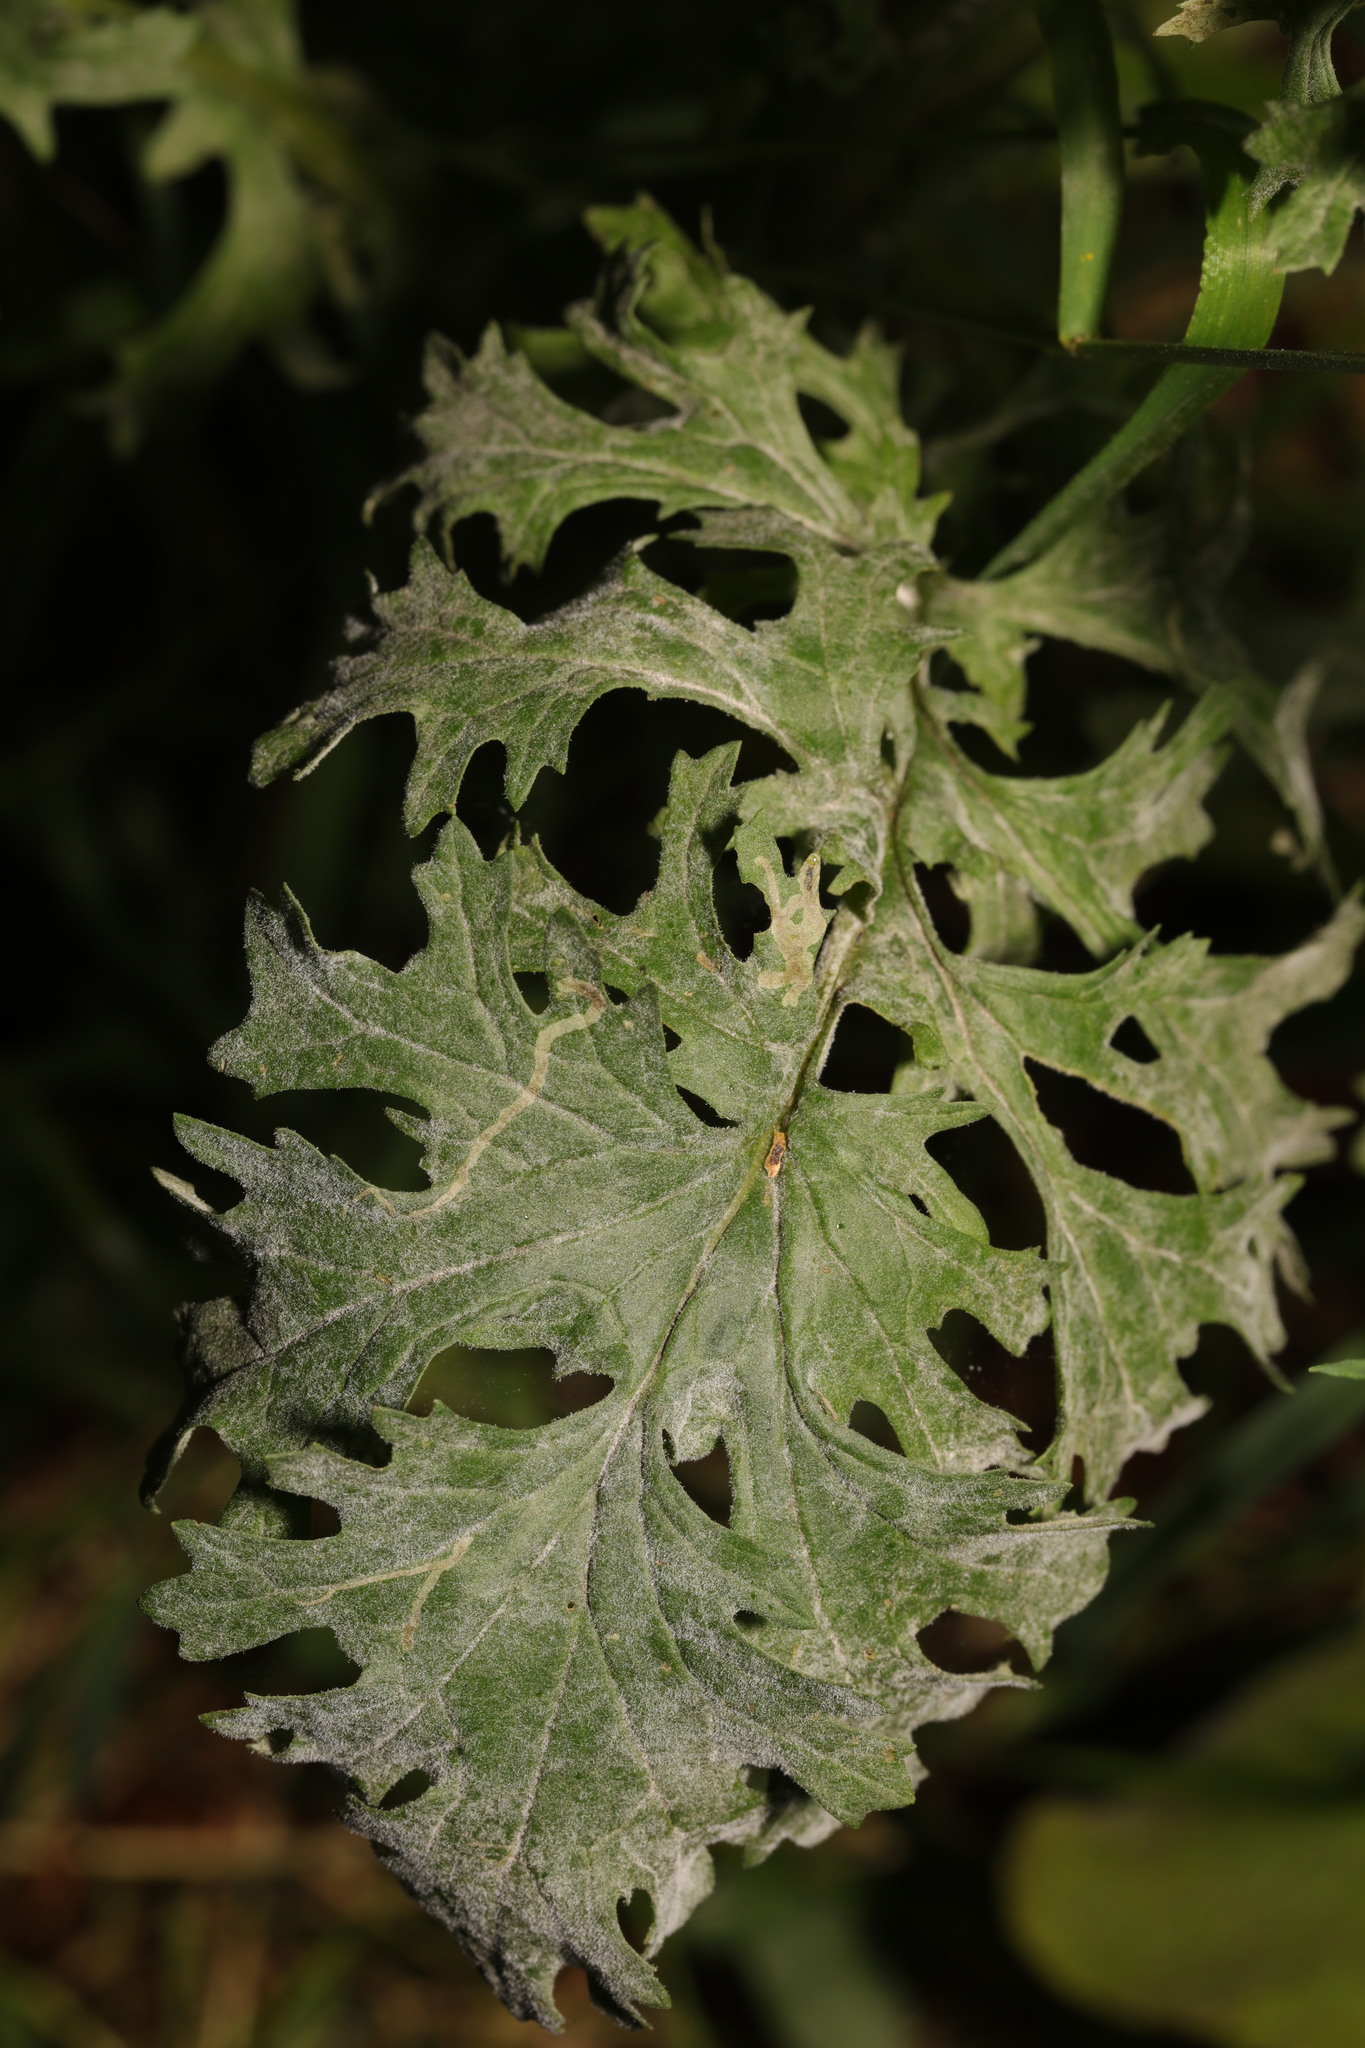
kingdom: Fungi
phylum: Ascomycota
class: Leotiomycetes
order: Helotiales
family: Erysiphaceae
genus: Erysiphe
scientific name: Erysiphe heraclei
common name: Umbellifer mildew
